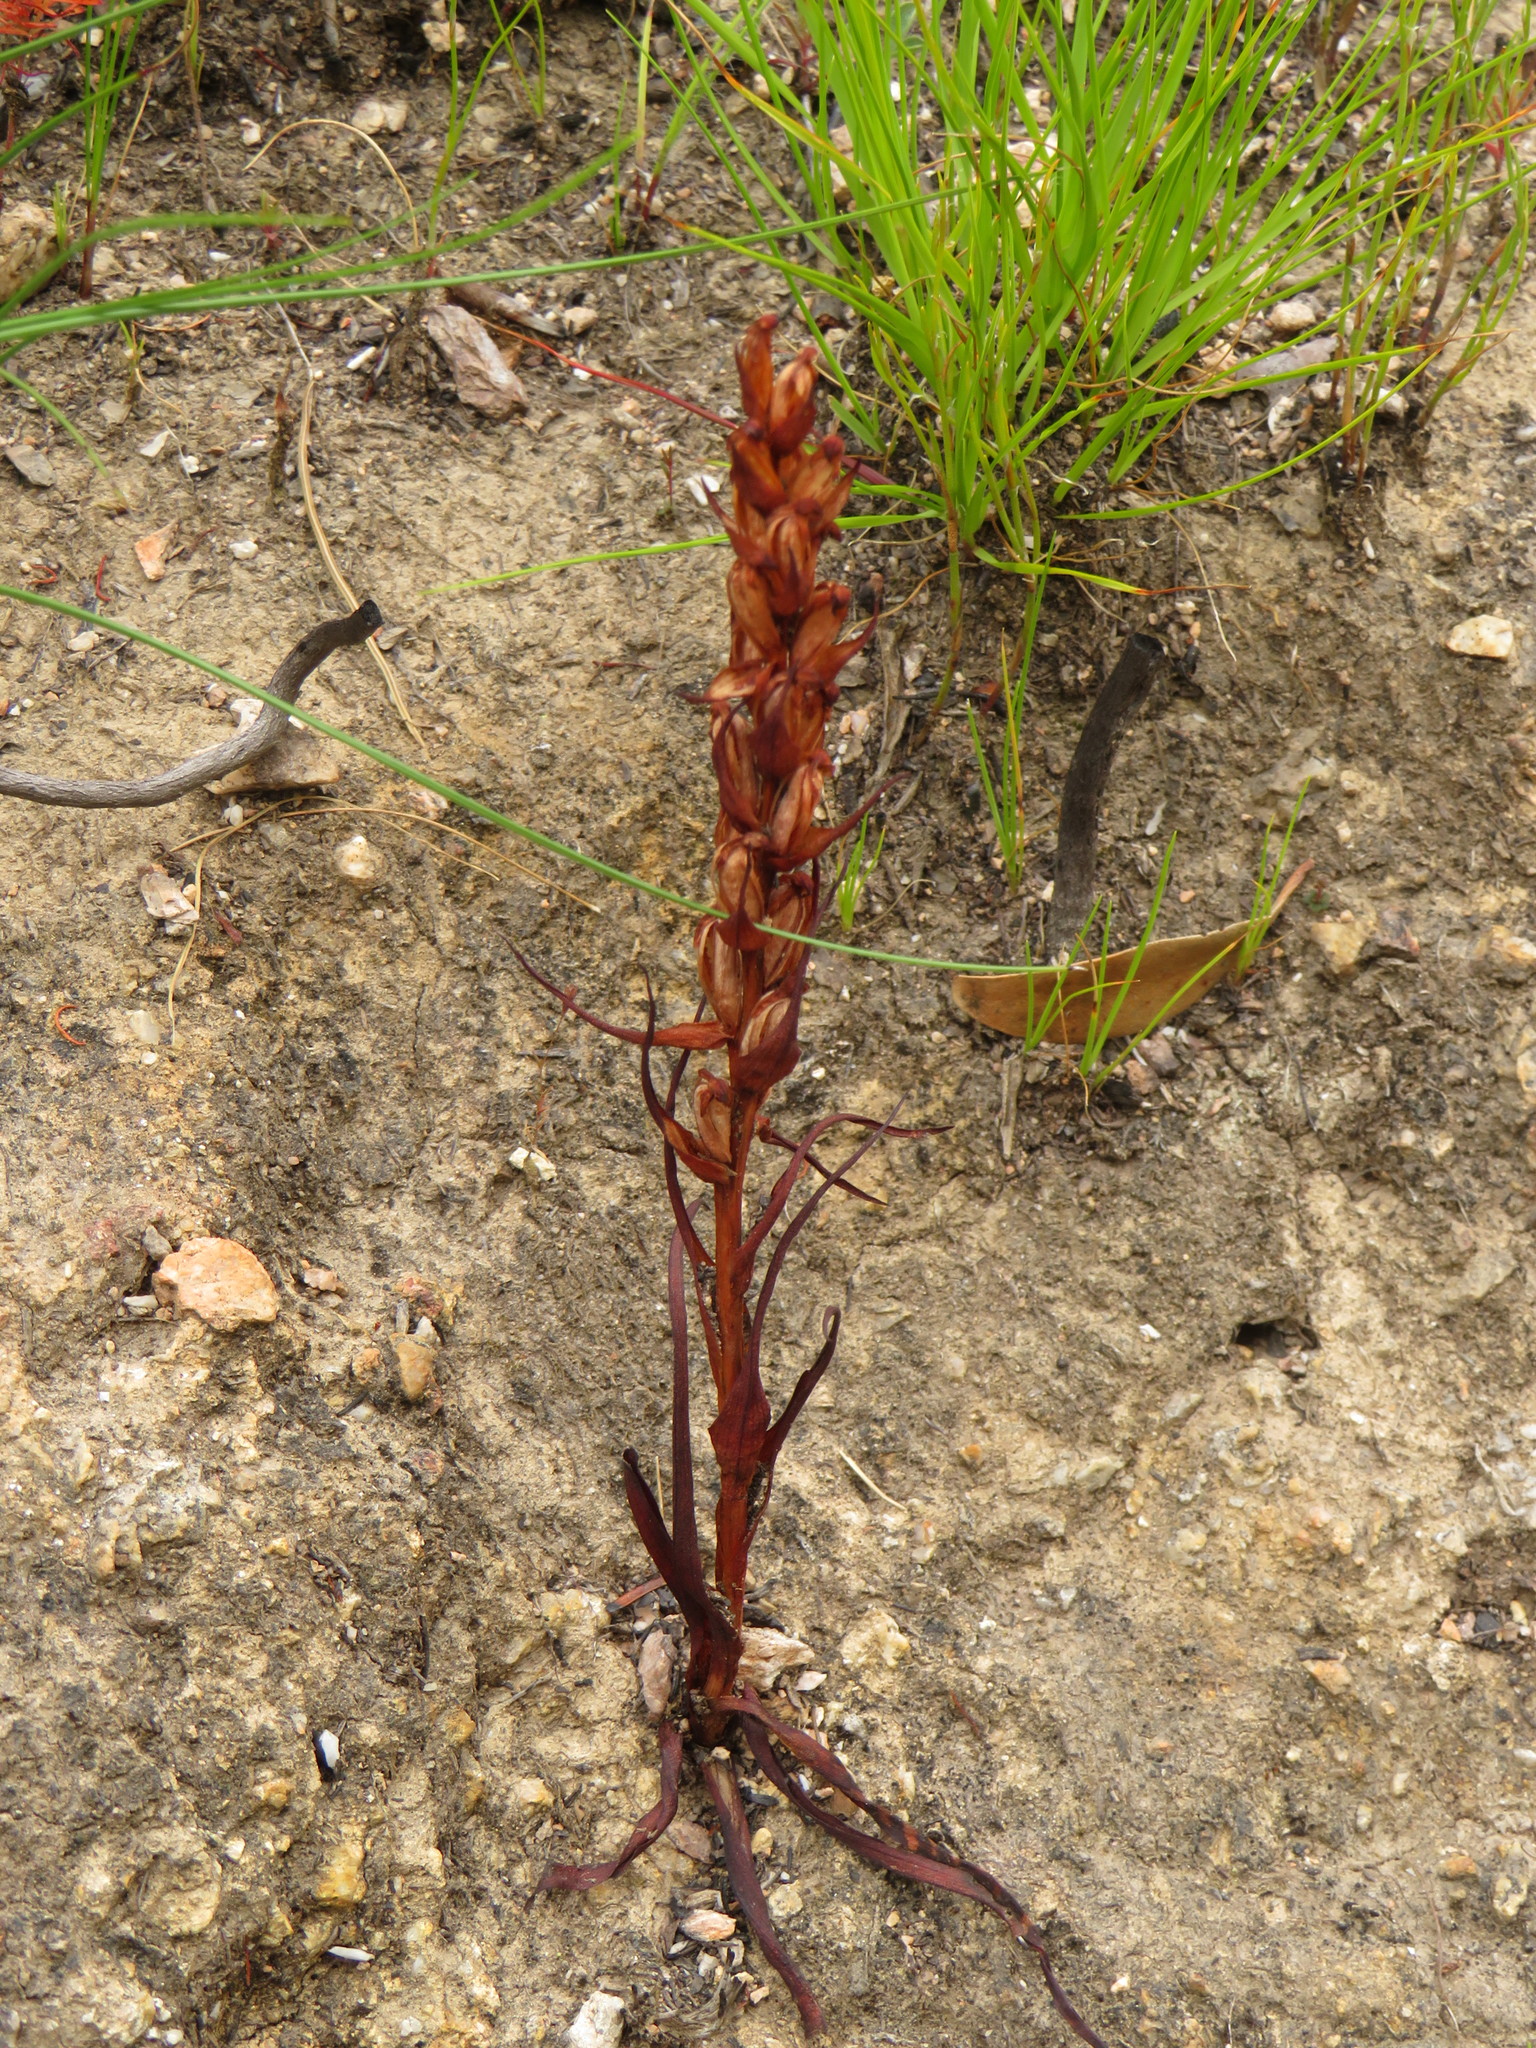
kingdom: Plantae
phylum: Tracheophyta
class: Liliopsida
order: Asparagales
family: Orchidaceae
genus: Disa
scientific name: Disa bracteata
